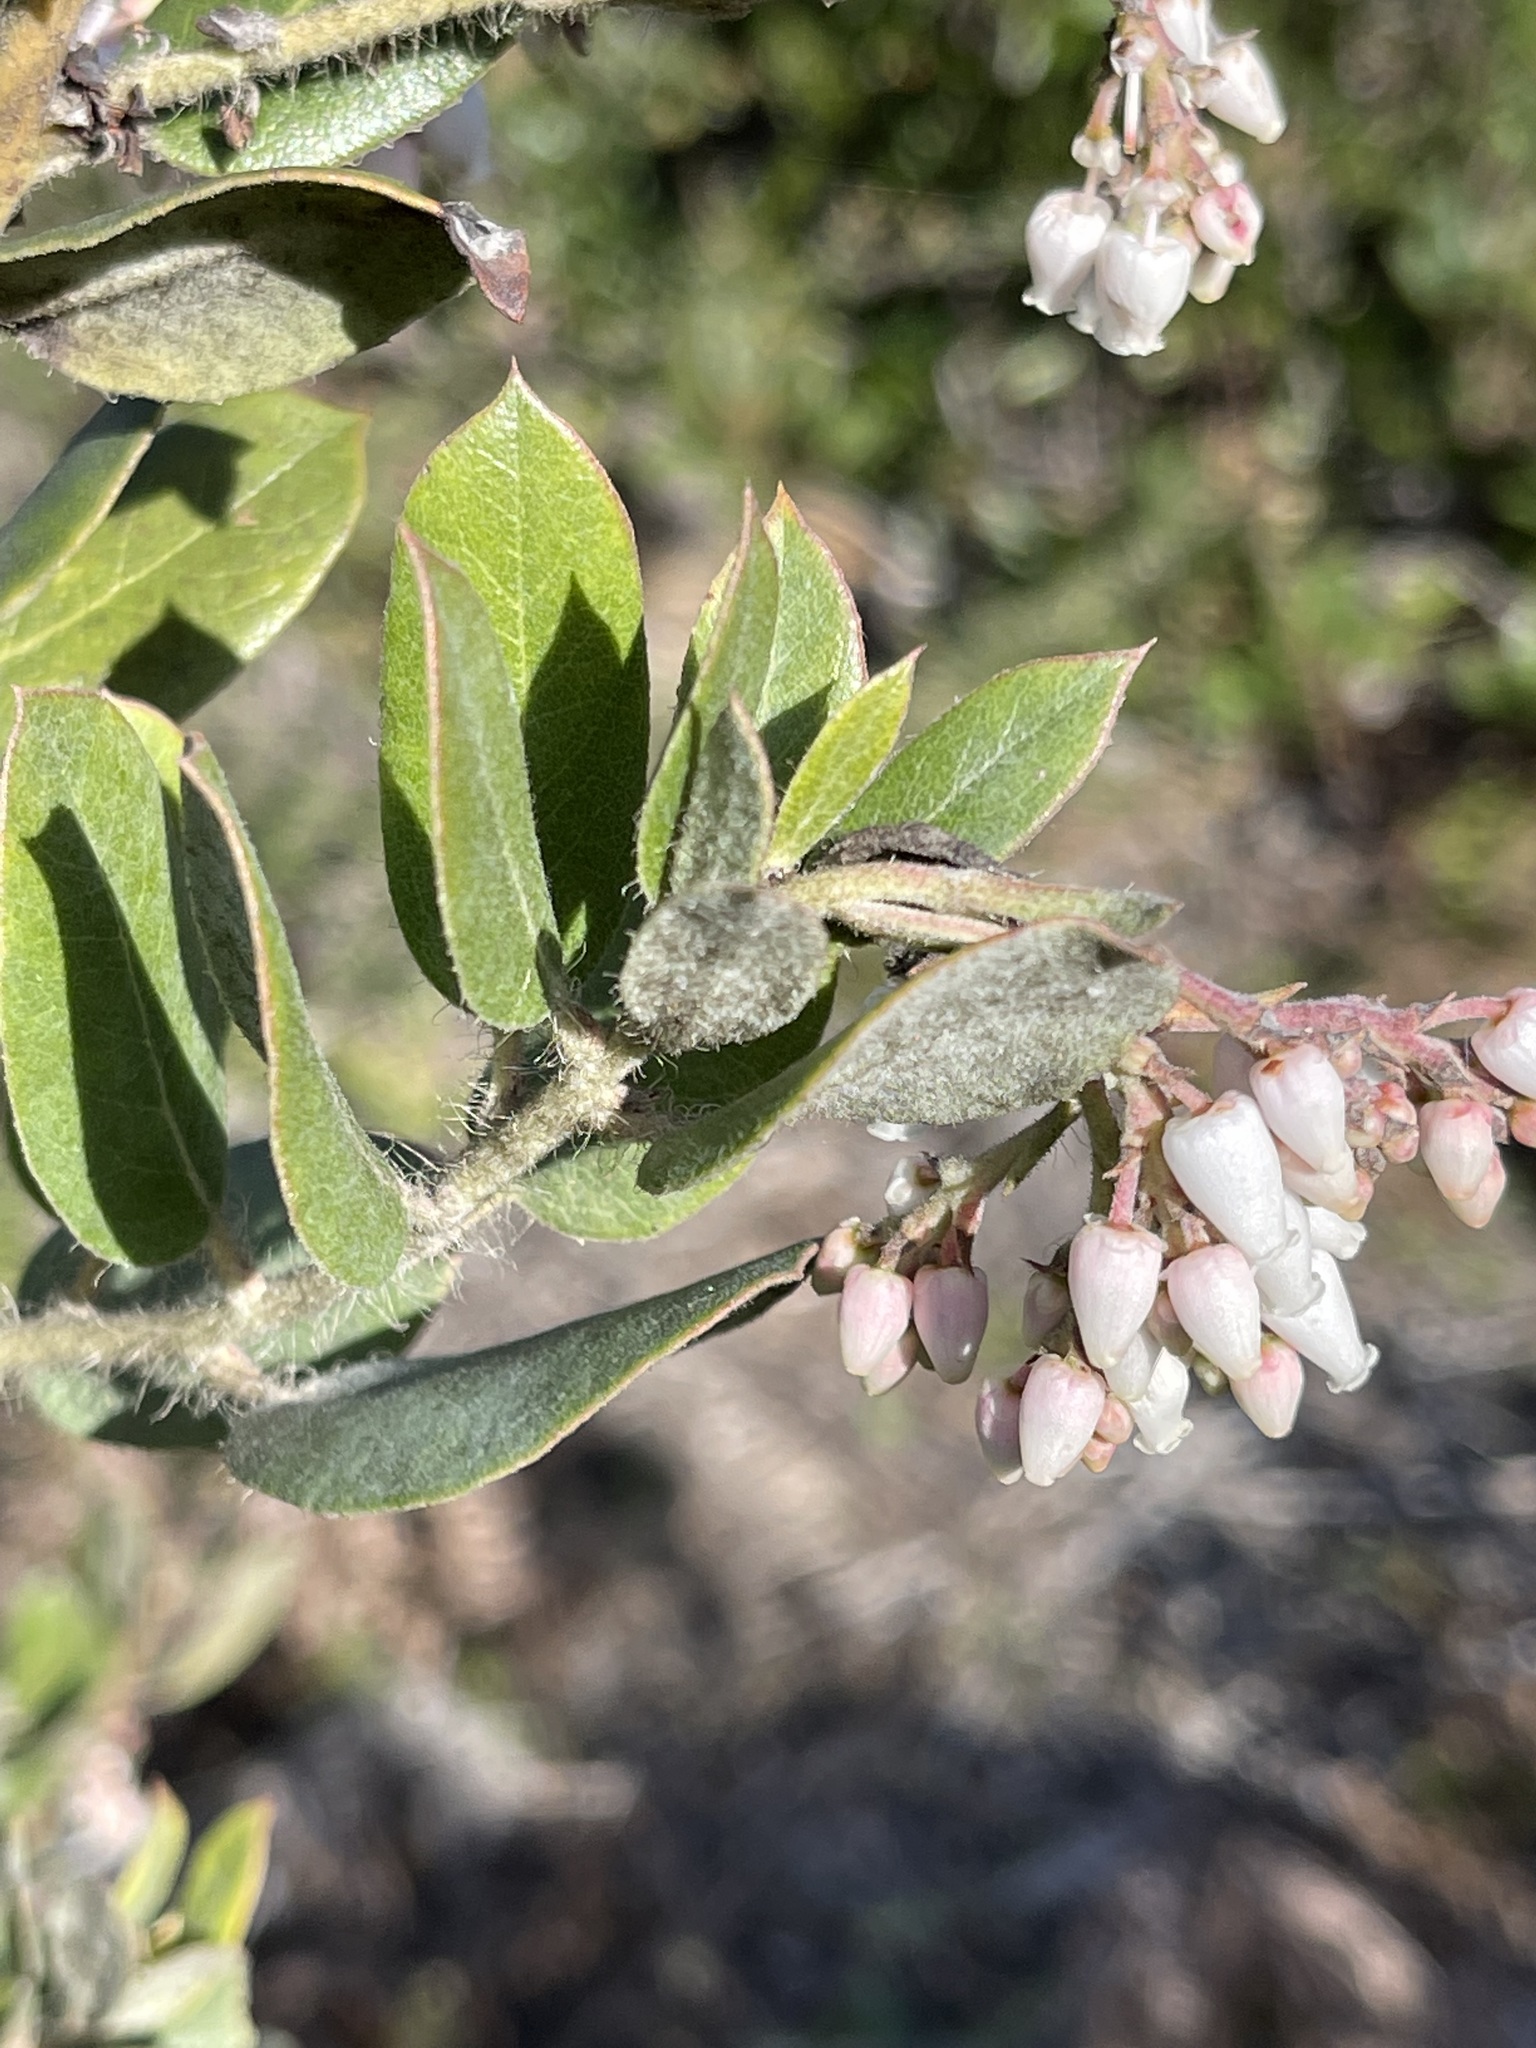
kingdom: Plantae
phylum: Tracheophyta
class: Magnoliopsida
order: Ericales
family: Ericaceae
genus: Arctostaphylos
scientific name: Arctostaphylos crustacea
